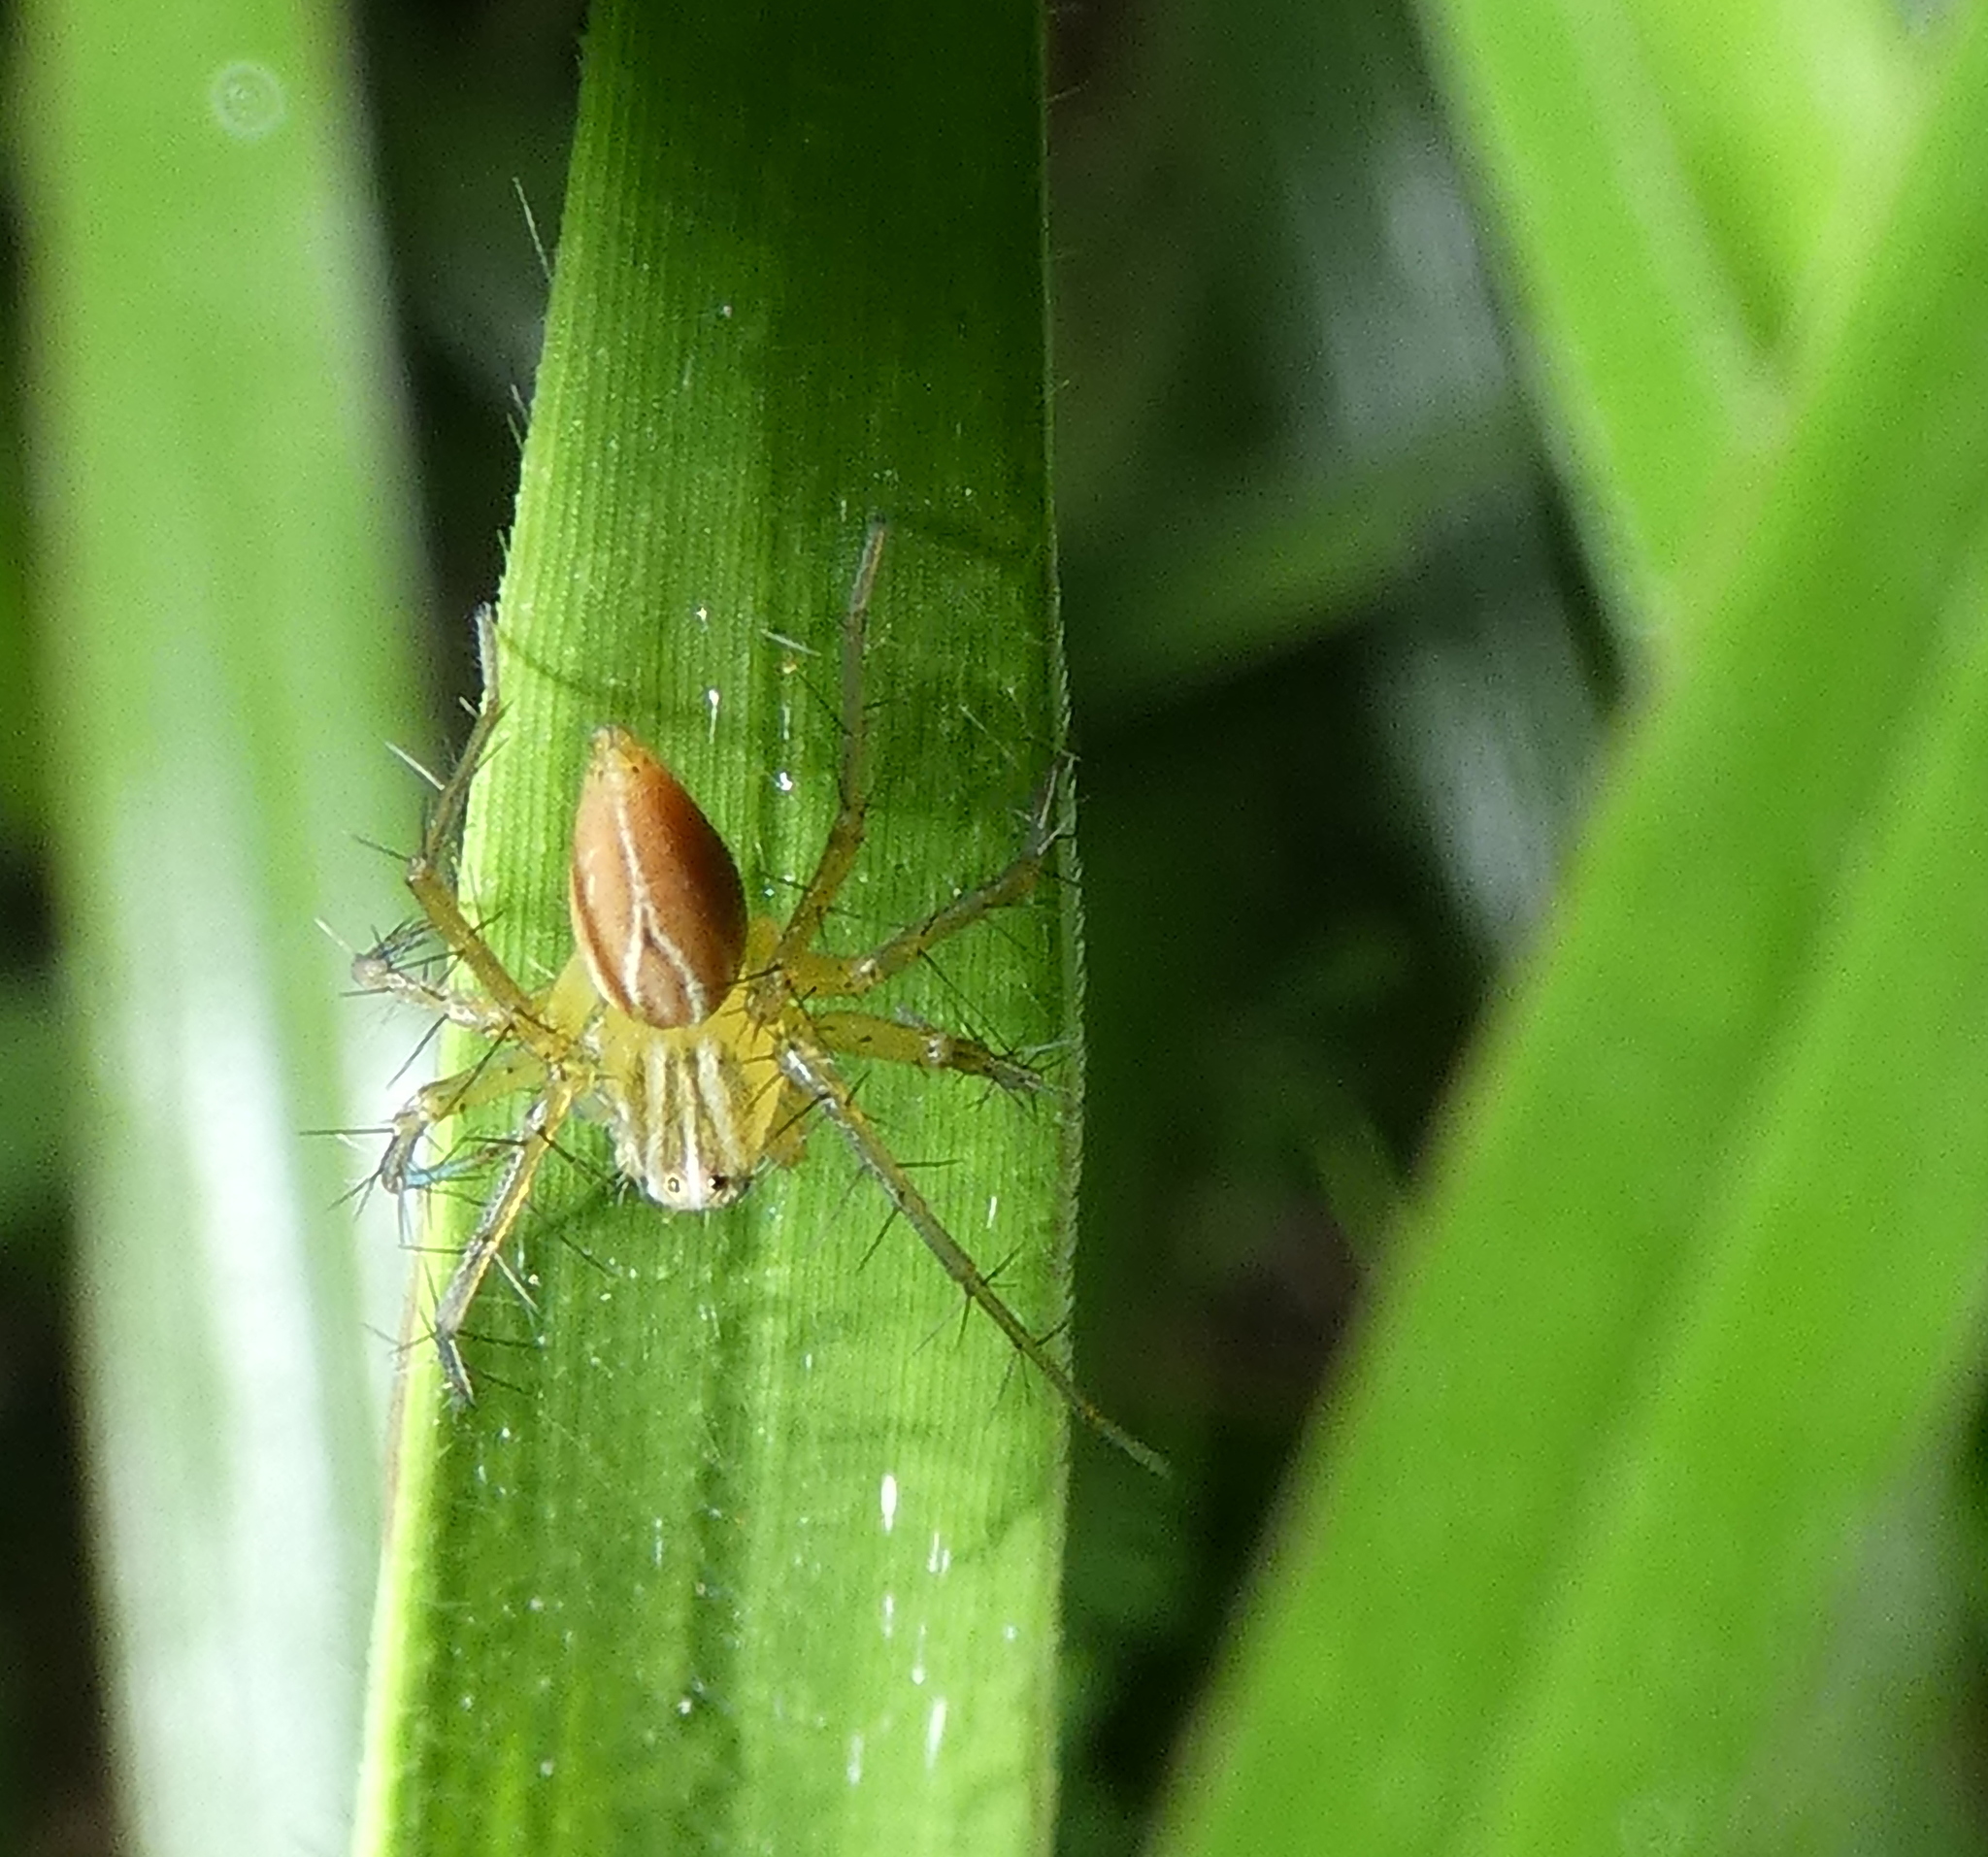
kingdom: Animalia
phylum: Arthropoda
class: Arachnida
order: Araneae
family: Oxyopidae
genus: Oxyopes
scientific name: Oxyopes salticus
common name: Lynx spiders
